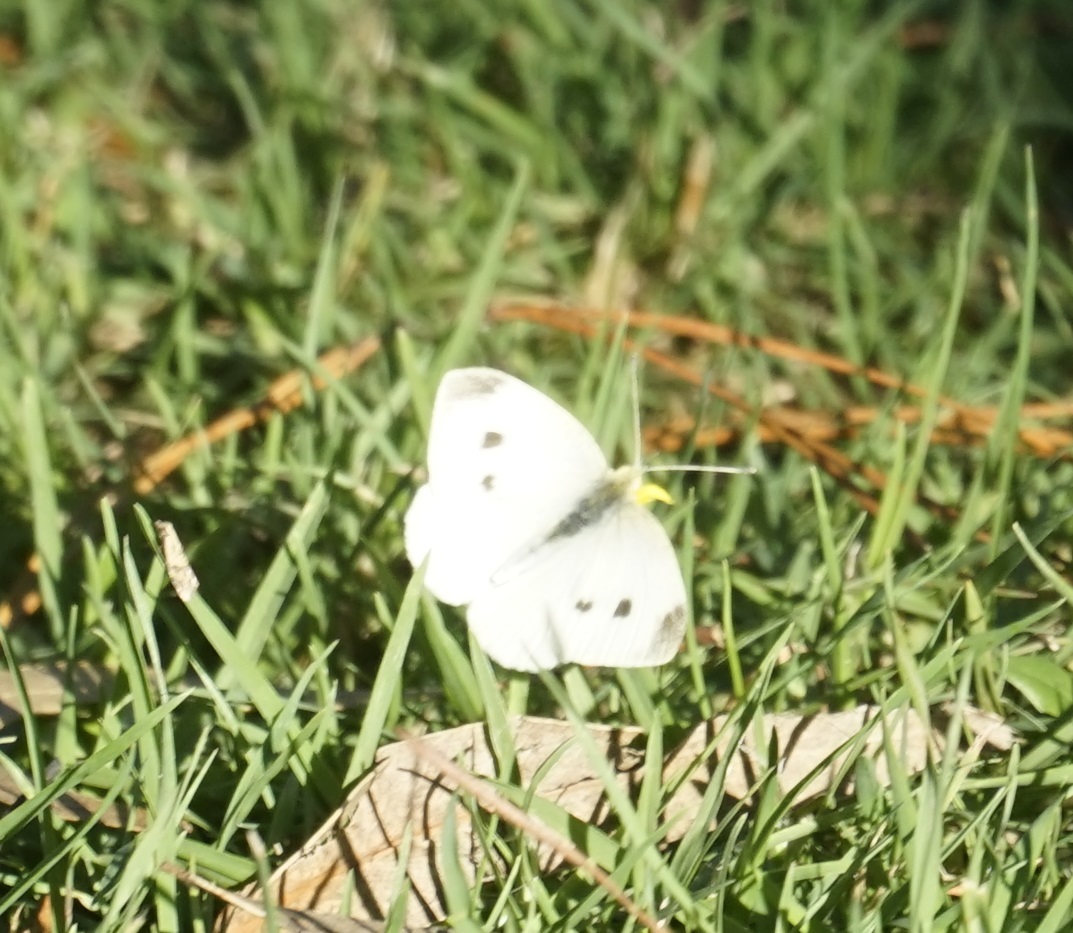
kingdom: Animalia
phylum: Arthropoda
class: Insecta
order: Lepidoptera
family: Pieridae
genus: Pieris
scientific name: Pieris rapae
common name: Small white
